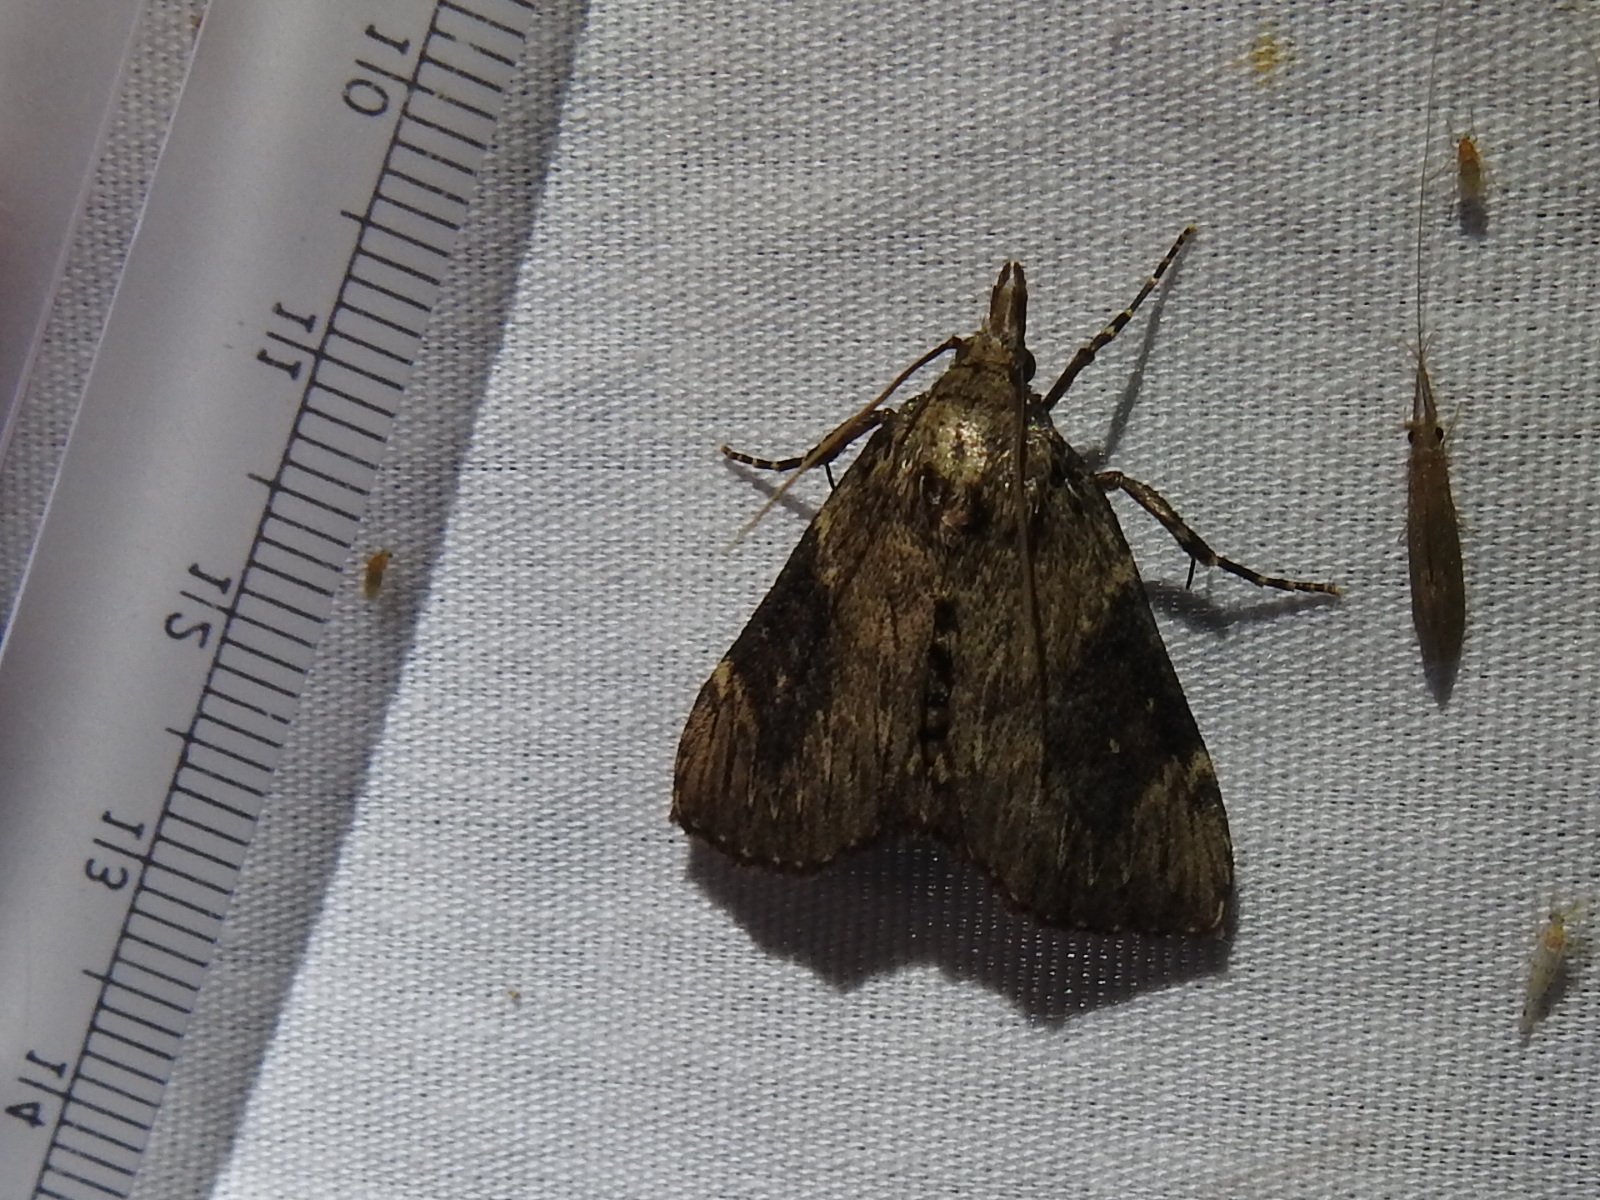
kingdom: Animalia
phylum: Arthropoda
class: Insecta
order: Lepidoptera
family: Pyralidae
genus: Omphalocera
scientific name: Omphalocera cariosa
